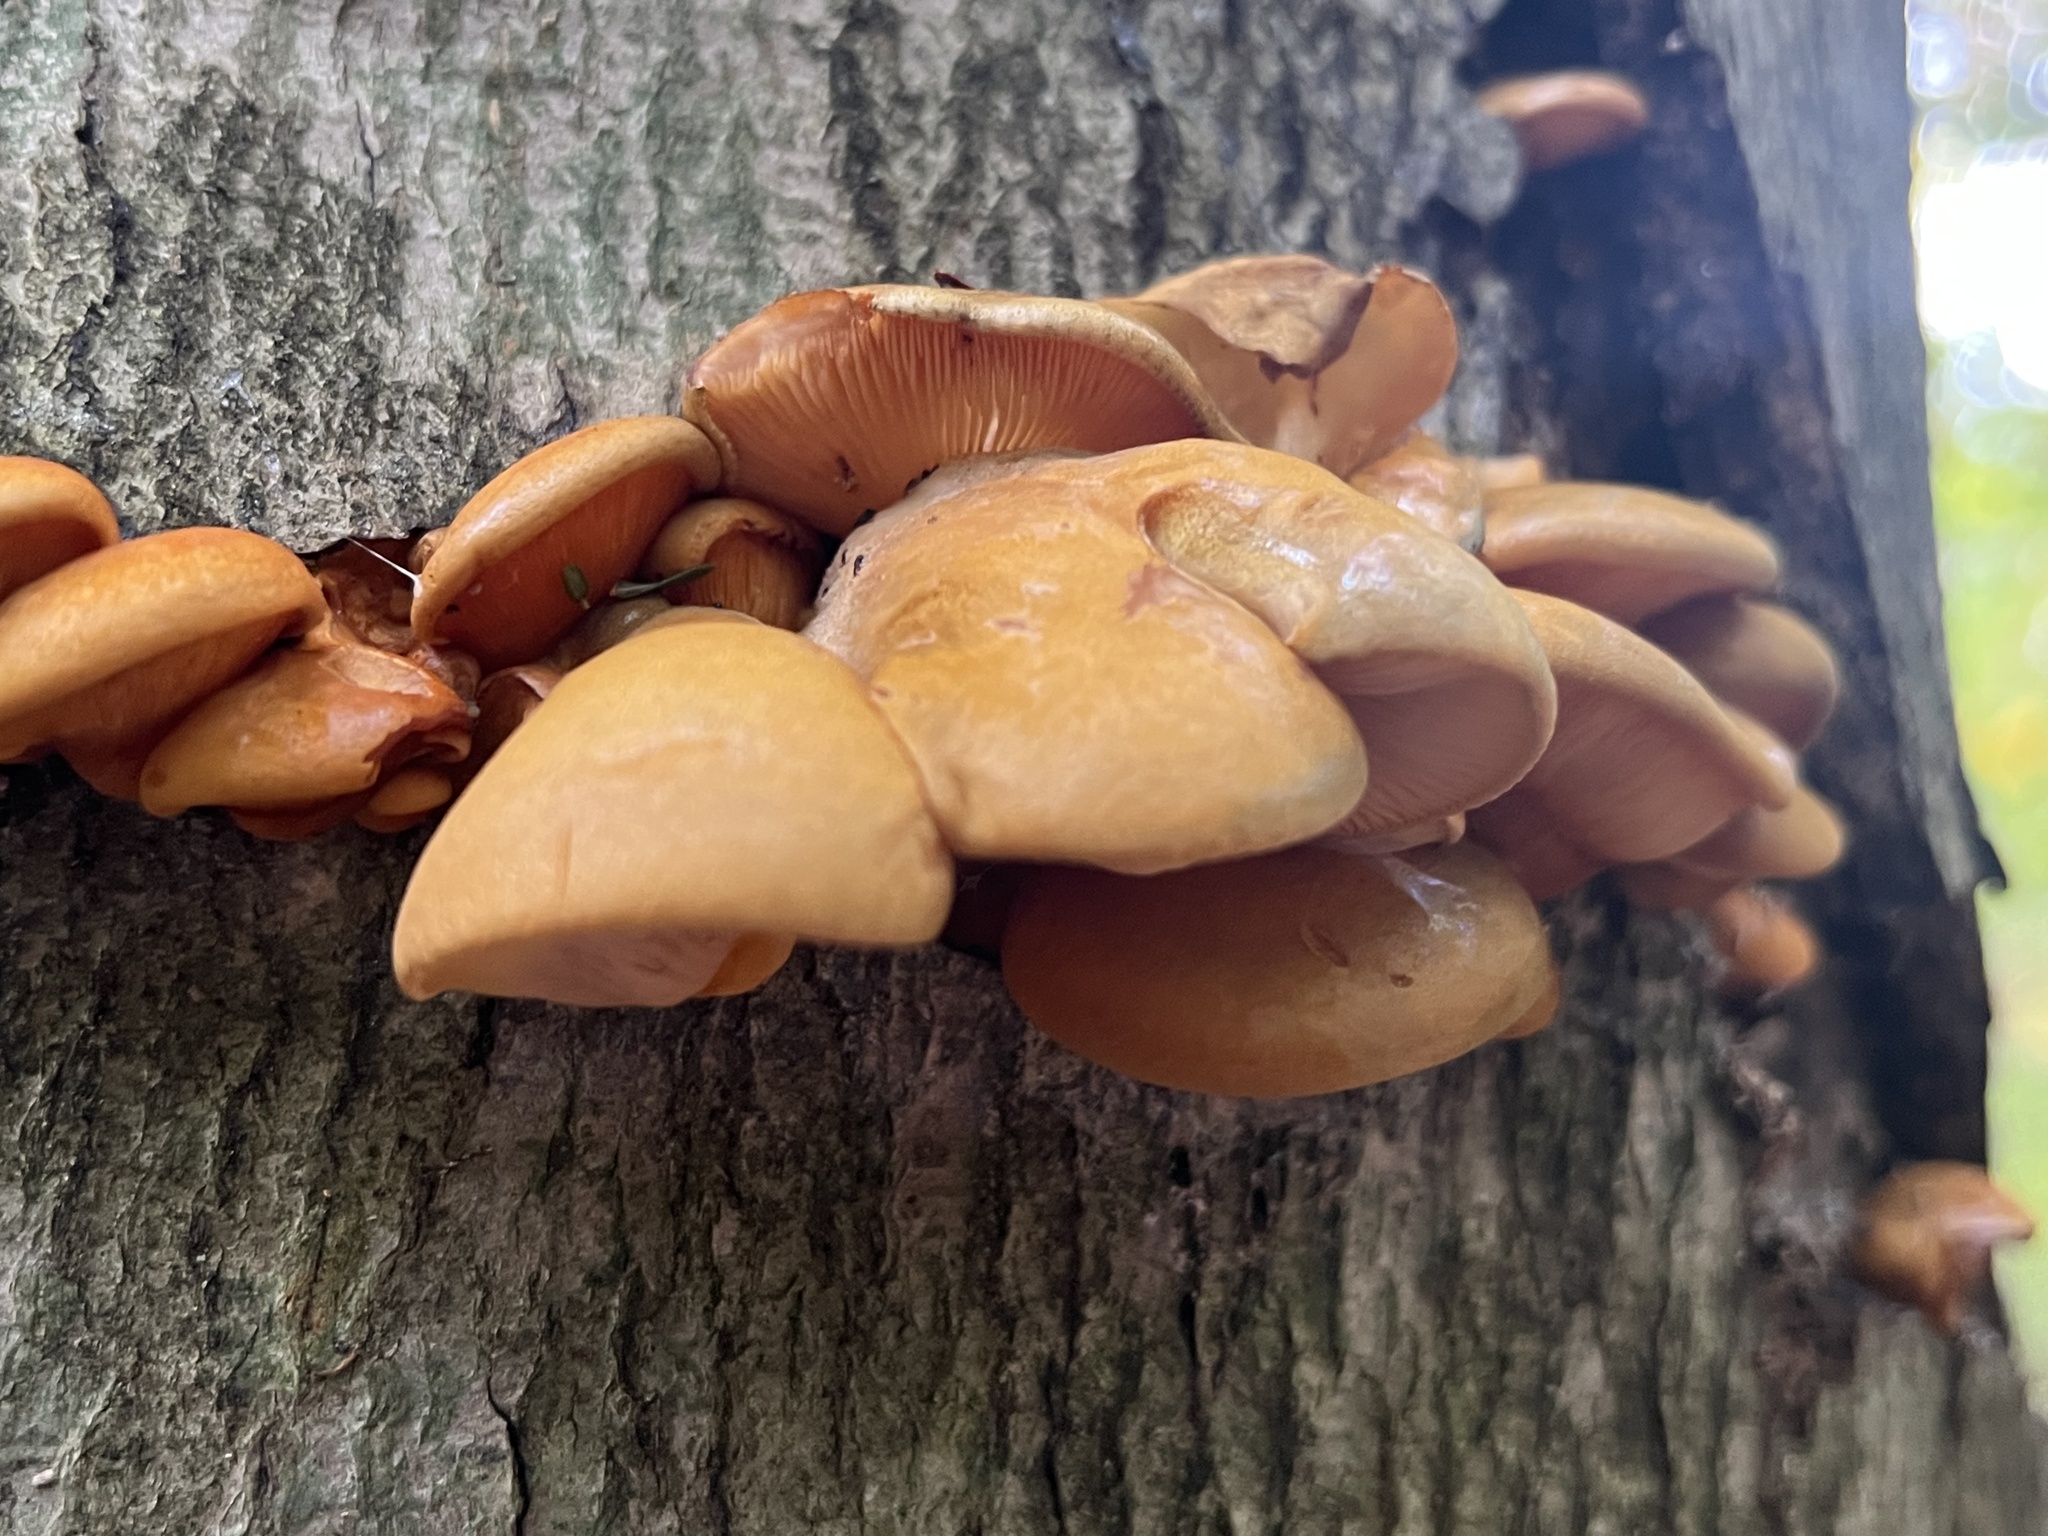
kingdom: Fungi
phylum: Basidiomycota
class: Agaricomycetes
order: Agaricales
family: Sarcomyxaceae
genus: Sarcomyxa
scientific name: Sarcomyxa serotina
